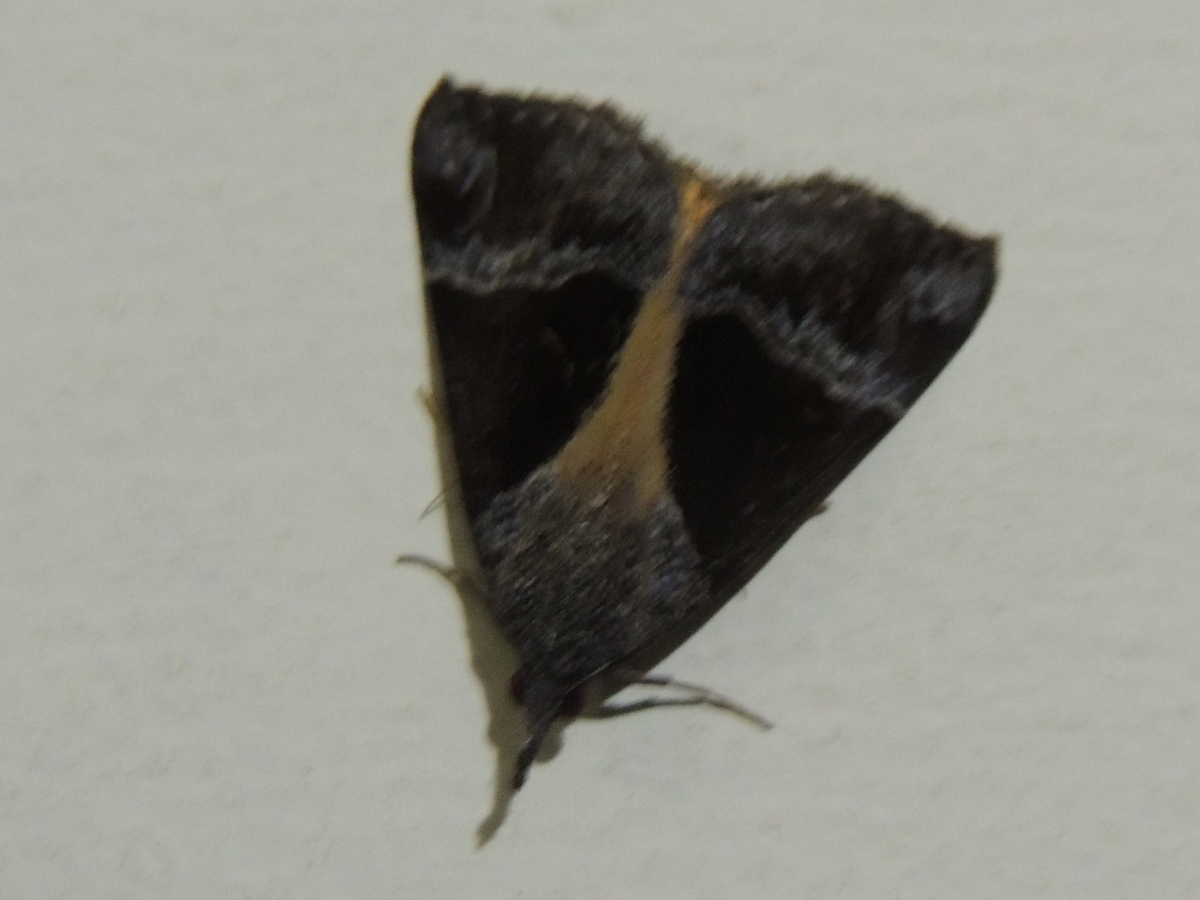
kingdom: Animalia
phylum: Arthropoda
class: Insecta
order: Lepidoptera
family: Erebidae
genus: Hypena
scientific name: Hypena quadralis
